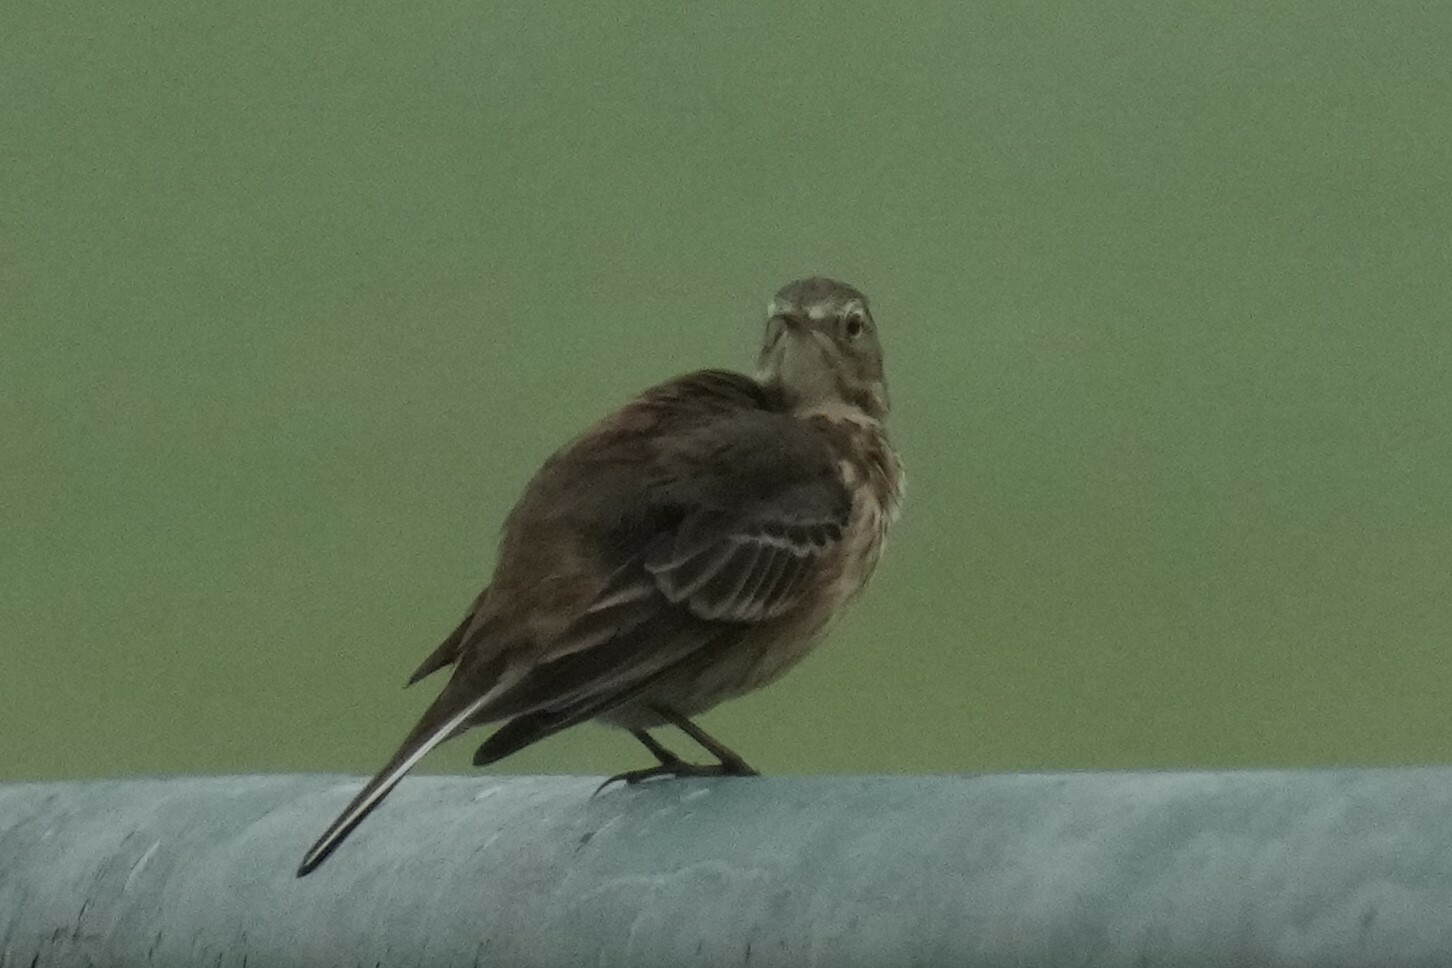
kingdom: Animalia
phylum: Chordata
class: Aves
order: Passeriformes
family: Motacillidae
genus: Anthus
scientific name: Anthus rubescens
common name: Buff-bellied pipit
